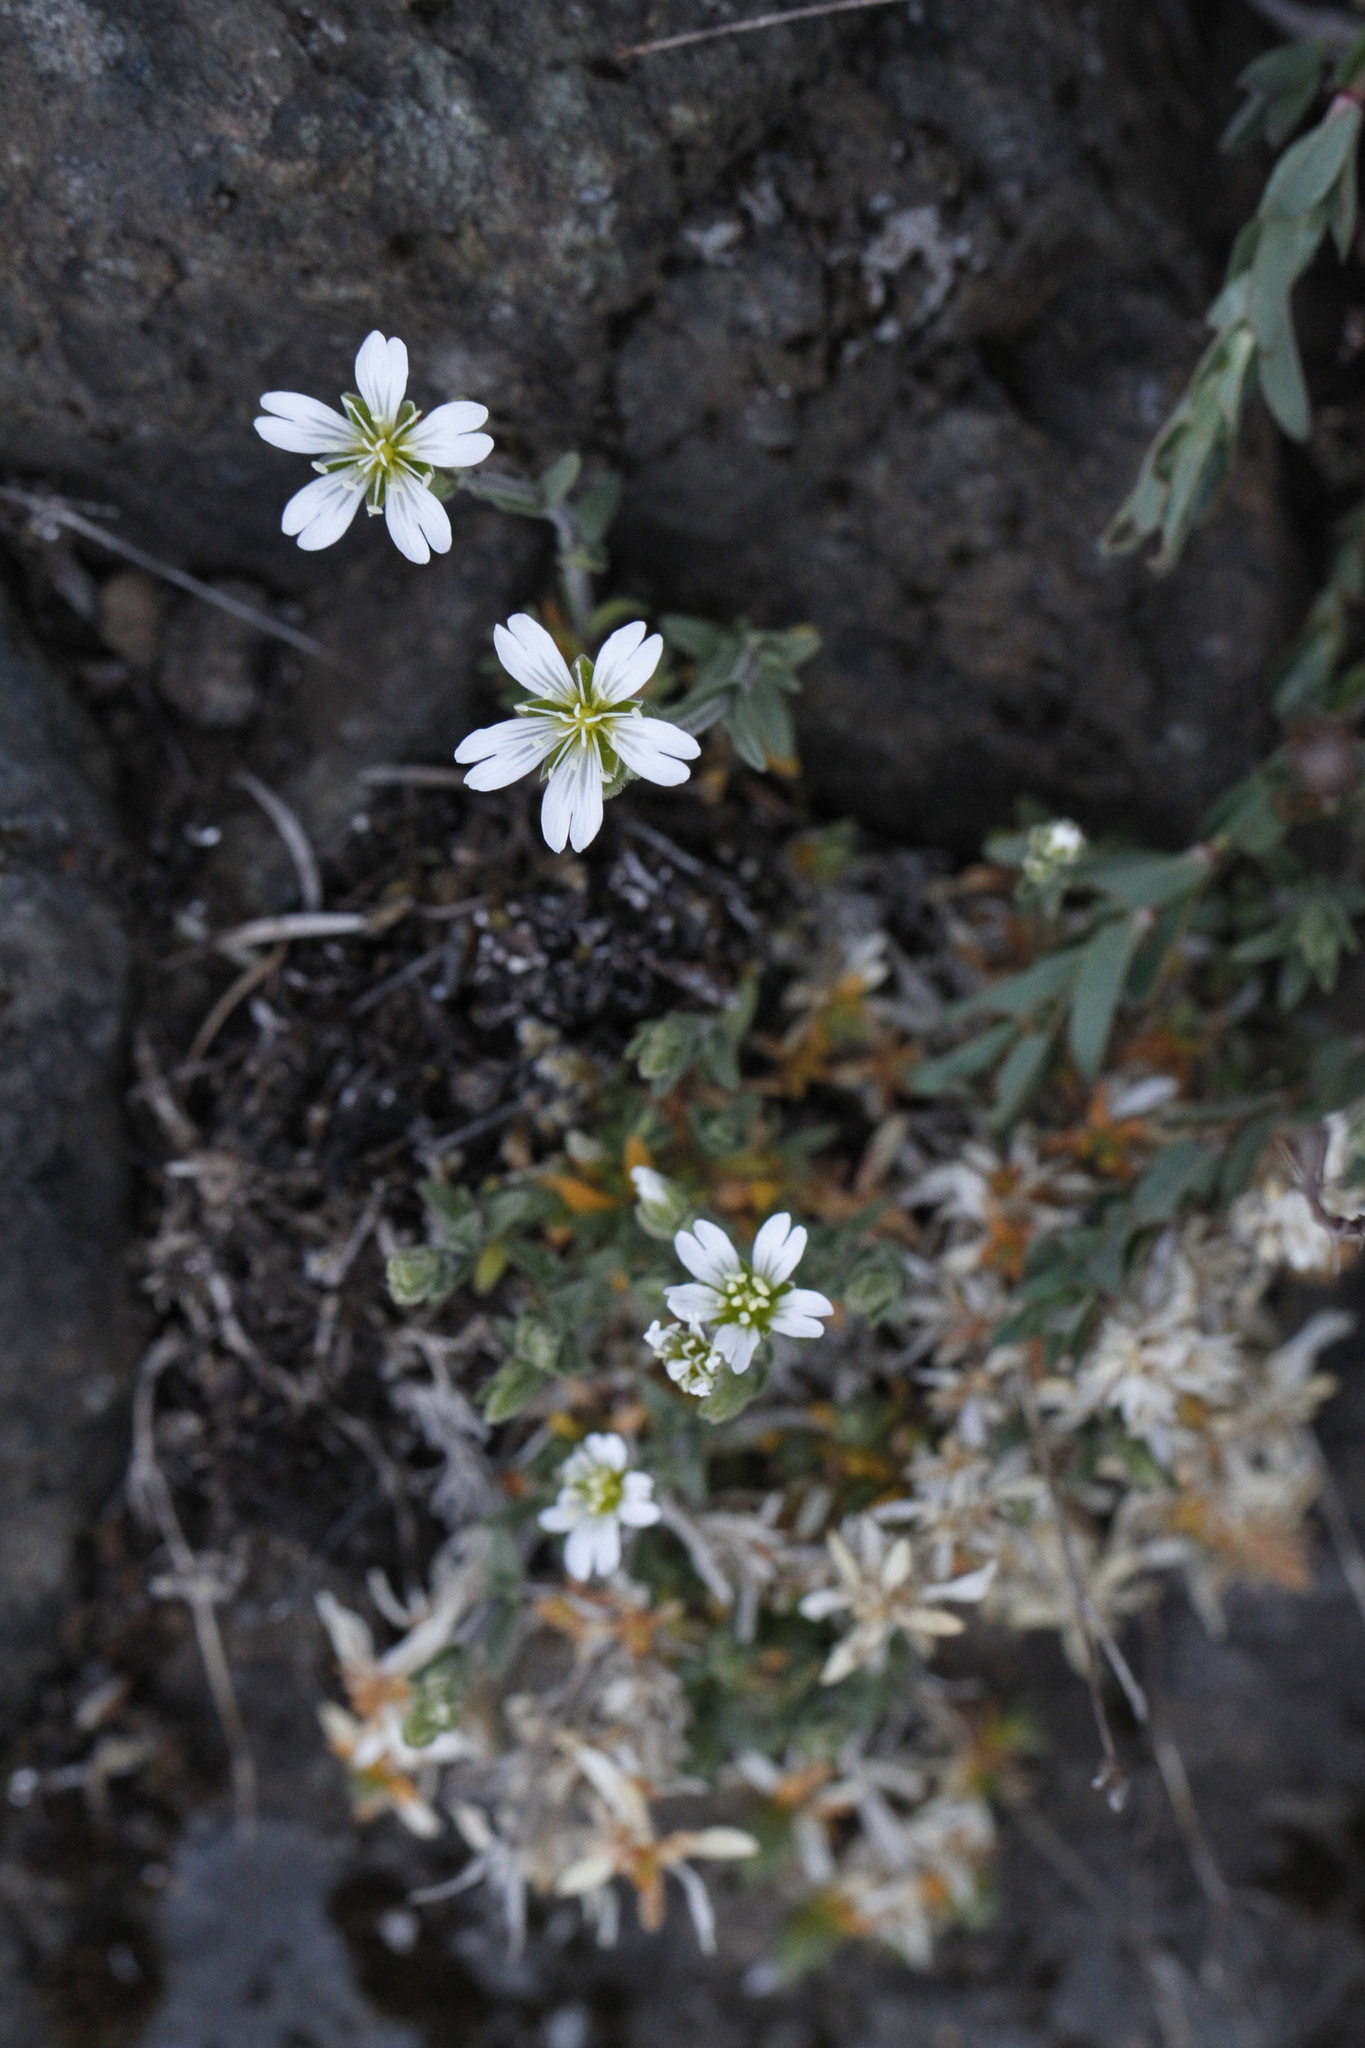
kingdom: Plantae
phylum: Tracheophyta
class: Magnoliopsida
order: Caryophyllales
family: Caryophyllaceae
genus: Cerastium
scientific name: Cerastium arvense
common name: Field mouse-ear
